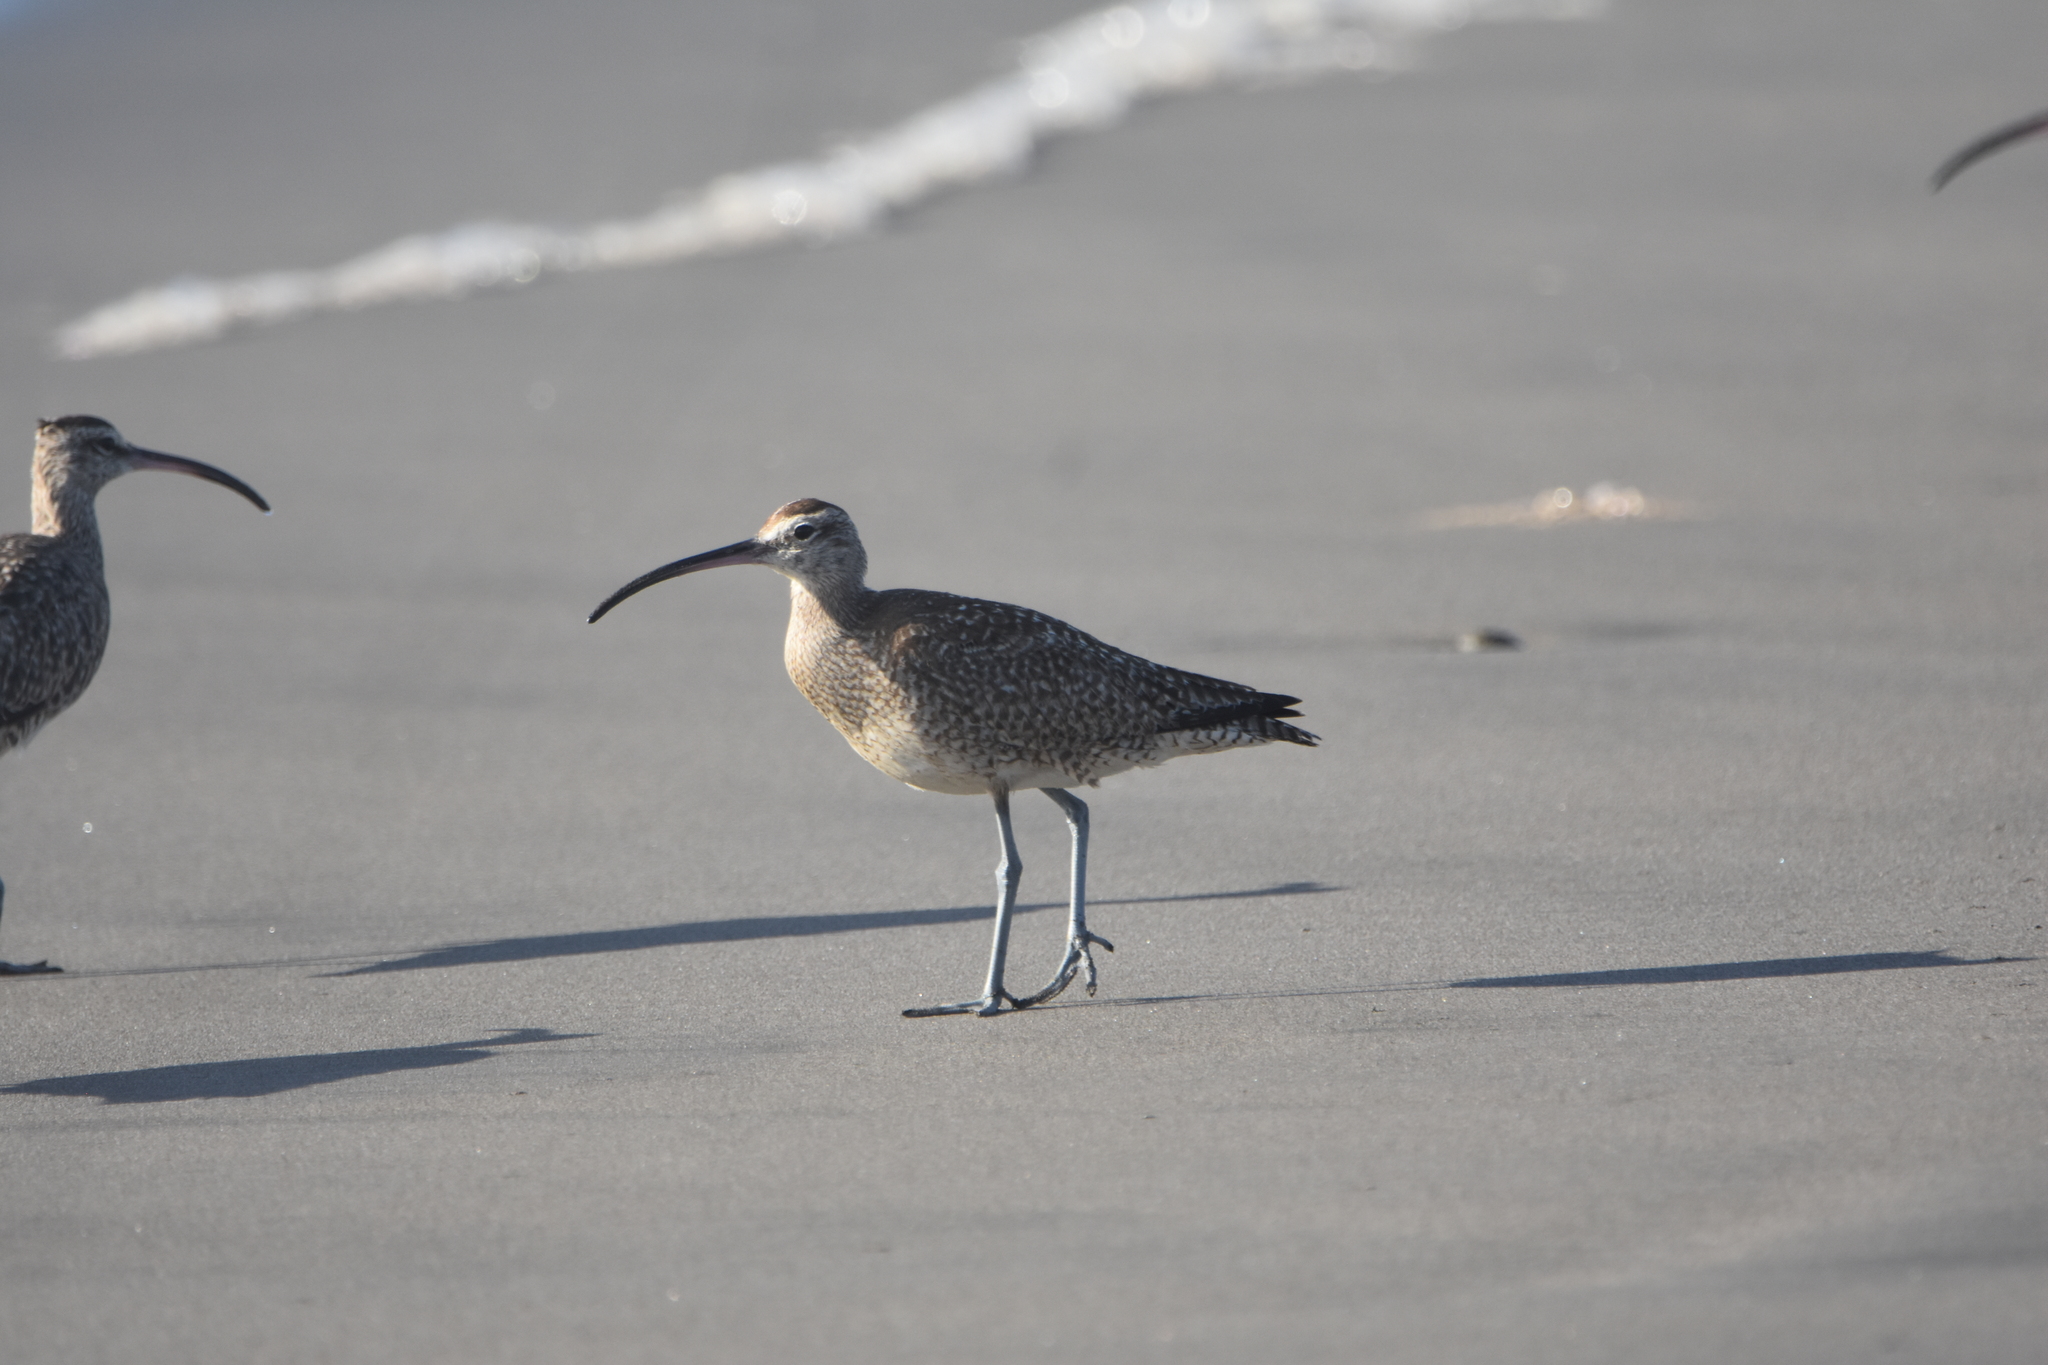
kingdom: Animalia
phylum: Chordata
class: Aves
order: Charadriiformes
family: Scolopacidae
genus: Numenius
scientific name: Numenius hudsonicus
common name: Hudsonian whimbrel
